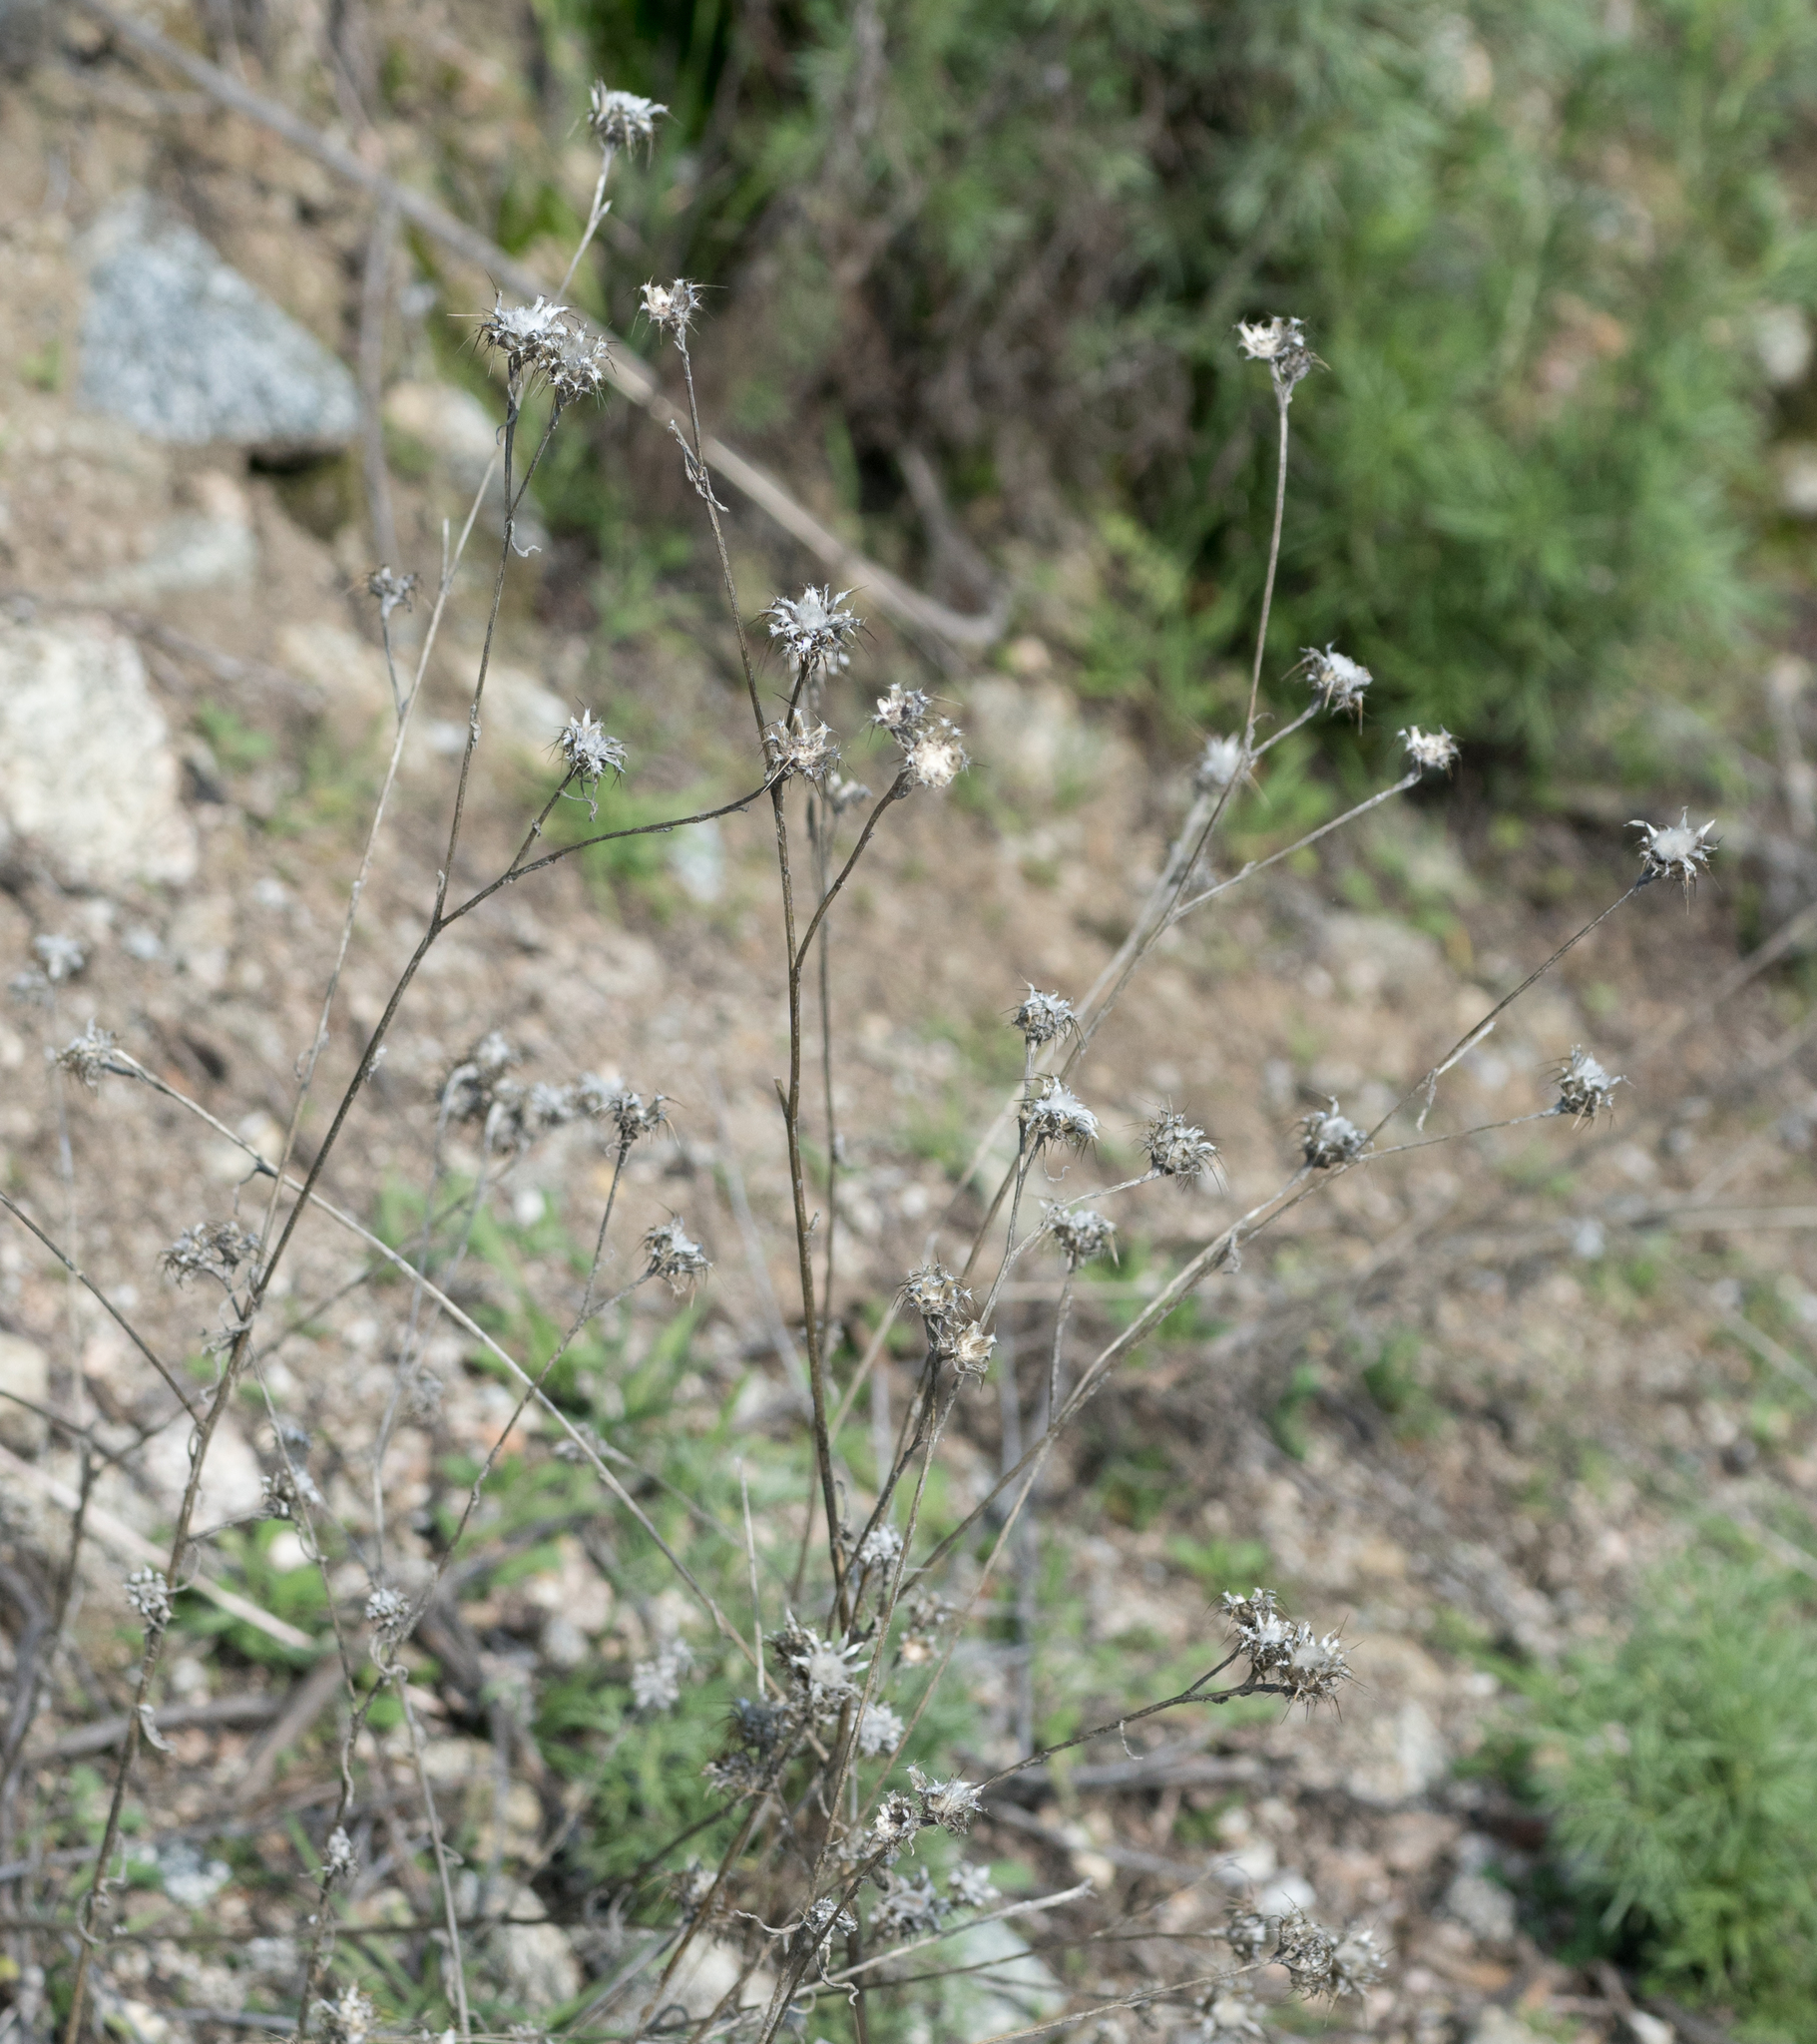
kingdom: Plantae
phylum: Tracheophyta
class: Magnoliopsida
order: Asterales
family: Asteraceae
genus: Centaurea
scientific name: Centaurea melitensis
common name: Maltese star-thistle
